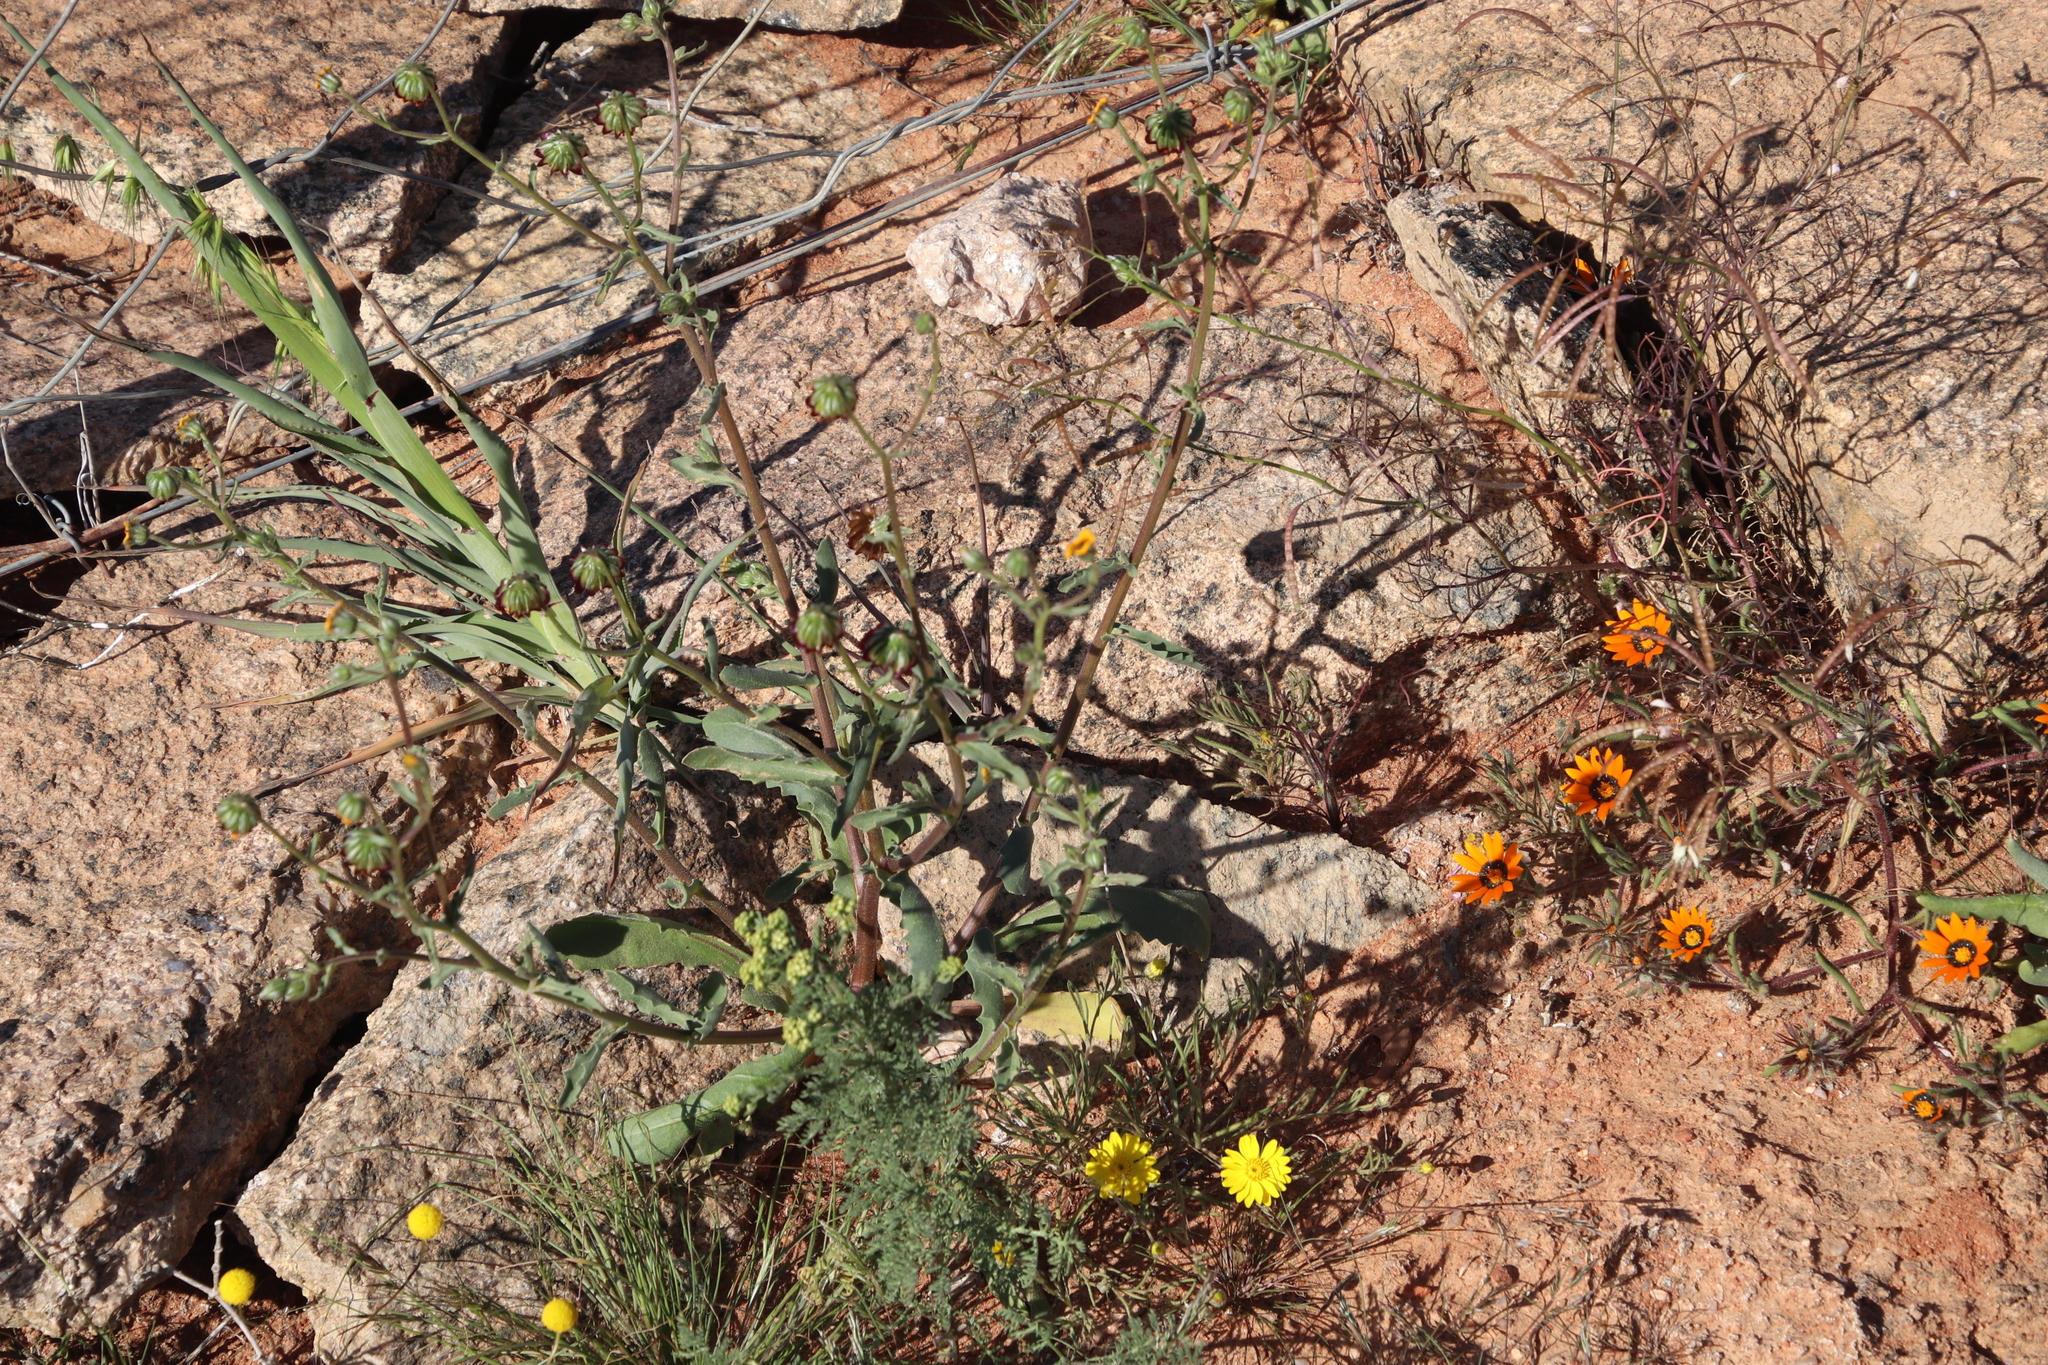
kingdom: Plantae
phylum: Tracheophyta
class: Magnoliopsida
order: Asterales
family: Asteraceae
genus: Osteospermum
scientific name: Osteospermum monstrosum
